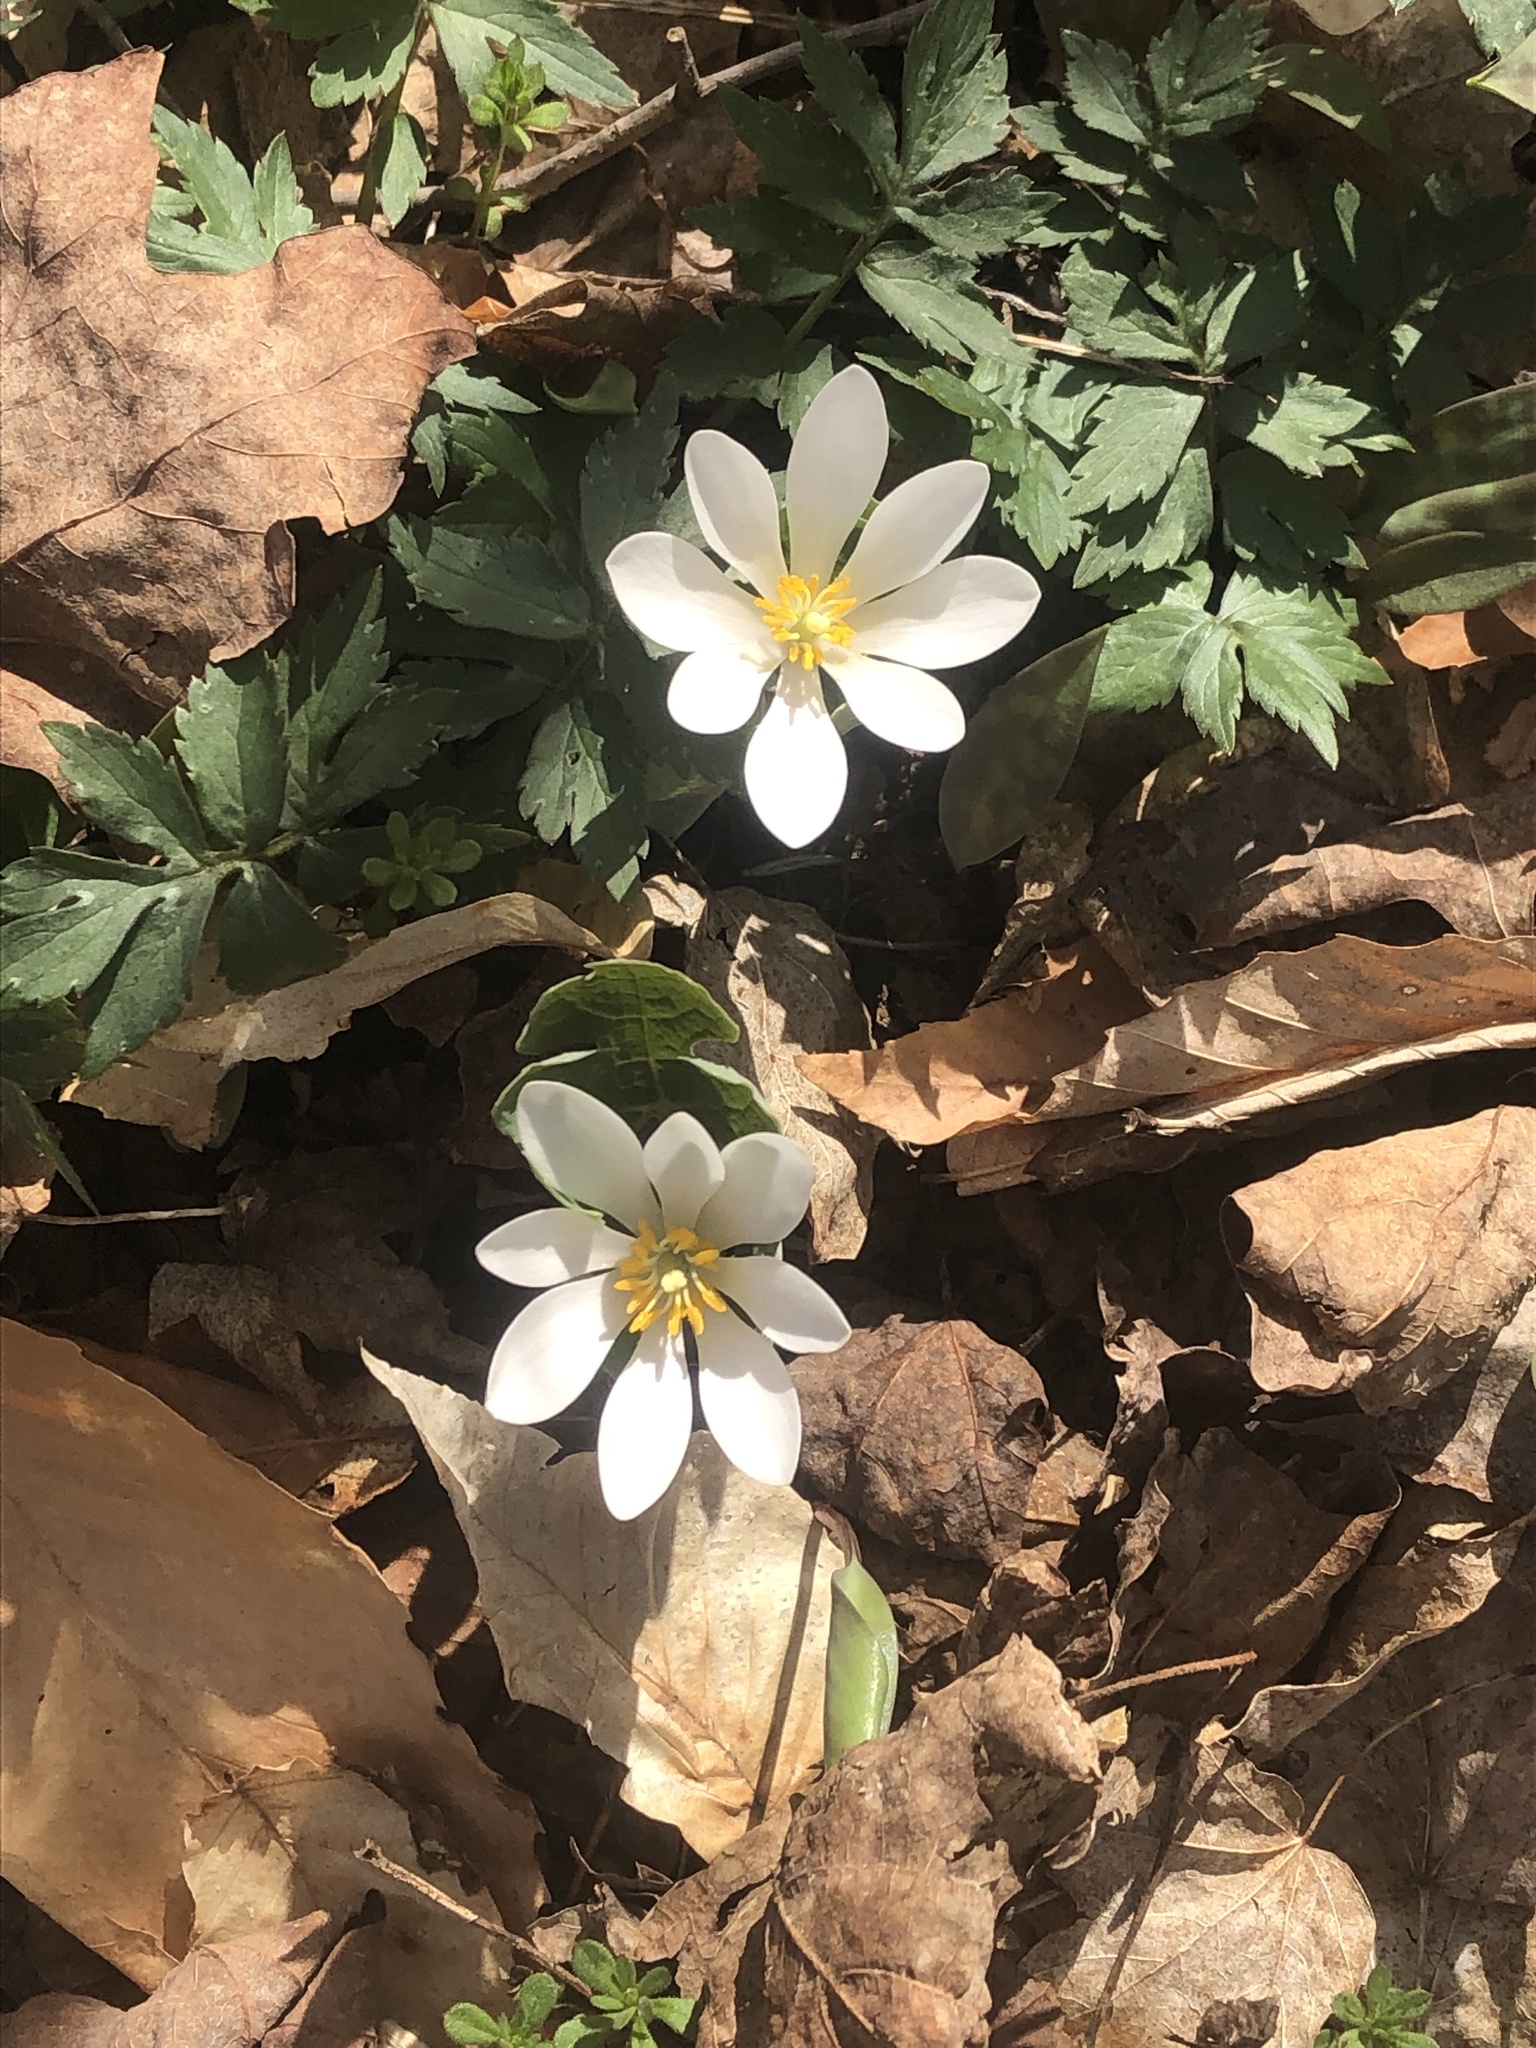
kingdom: Plantae
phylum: Tracheophyta
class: Magnoliopsida
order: Ranunculales
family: Papaveraceae
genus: Sanguinaria
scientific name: Sanguinaria canadensis
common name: Bloodroot
